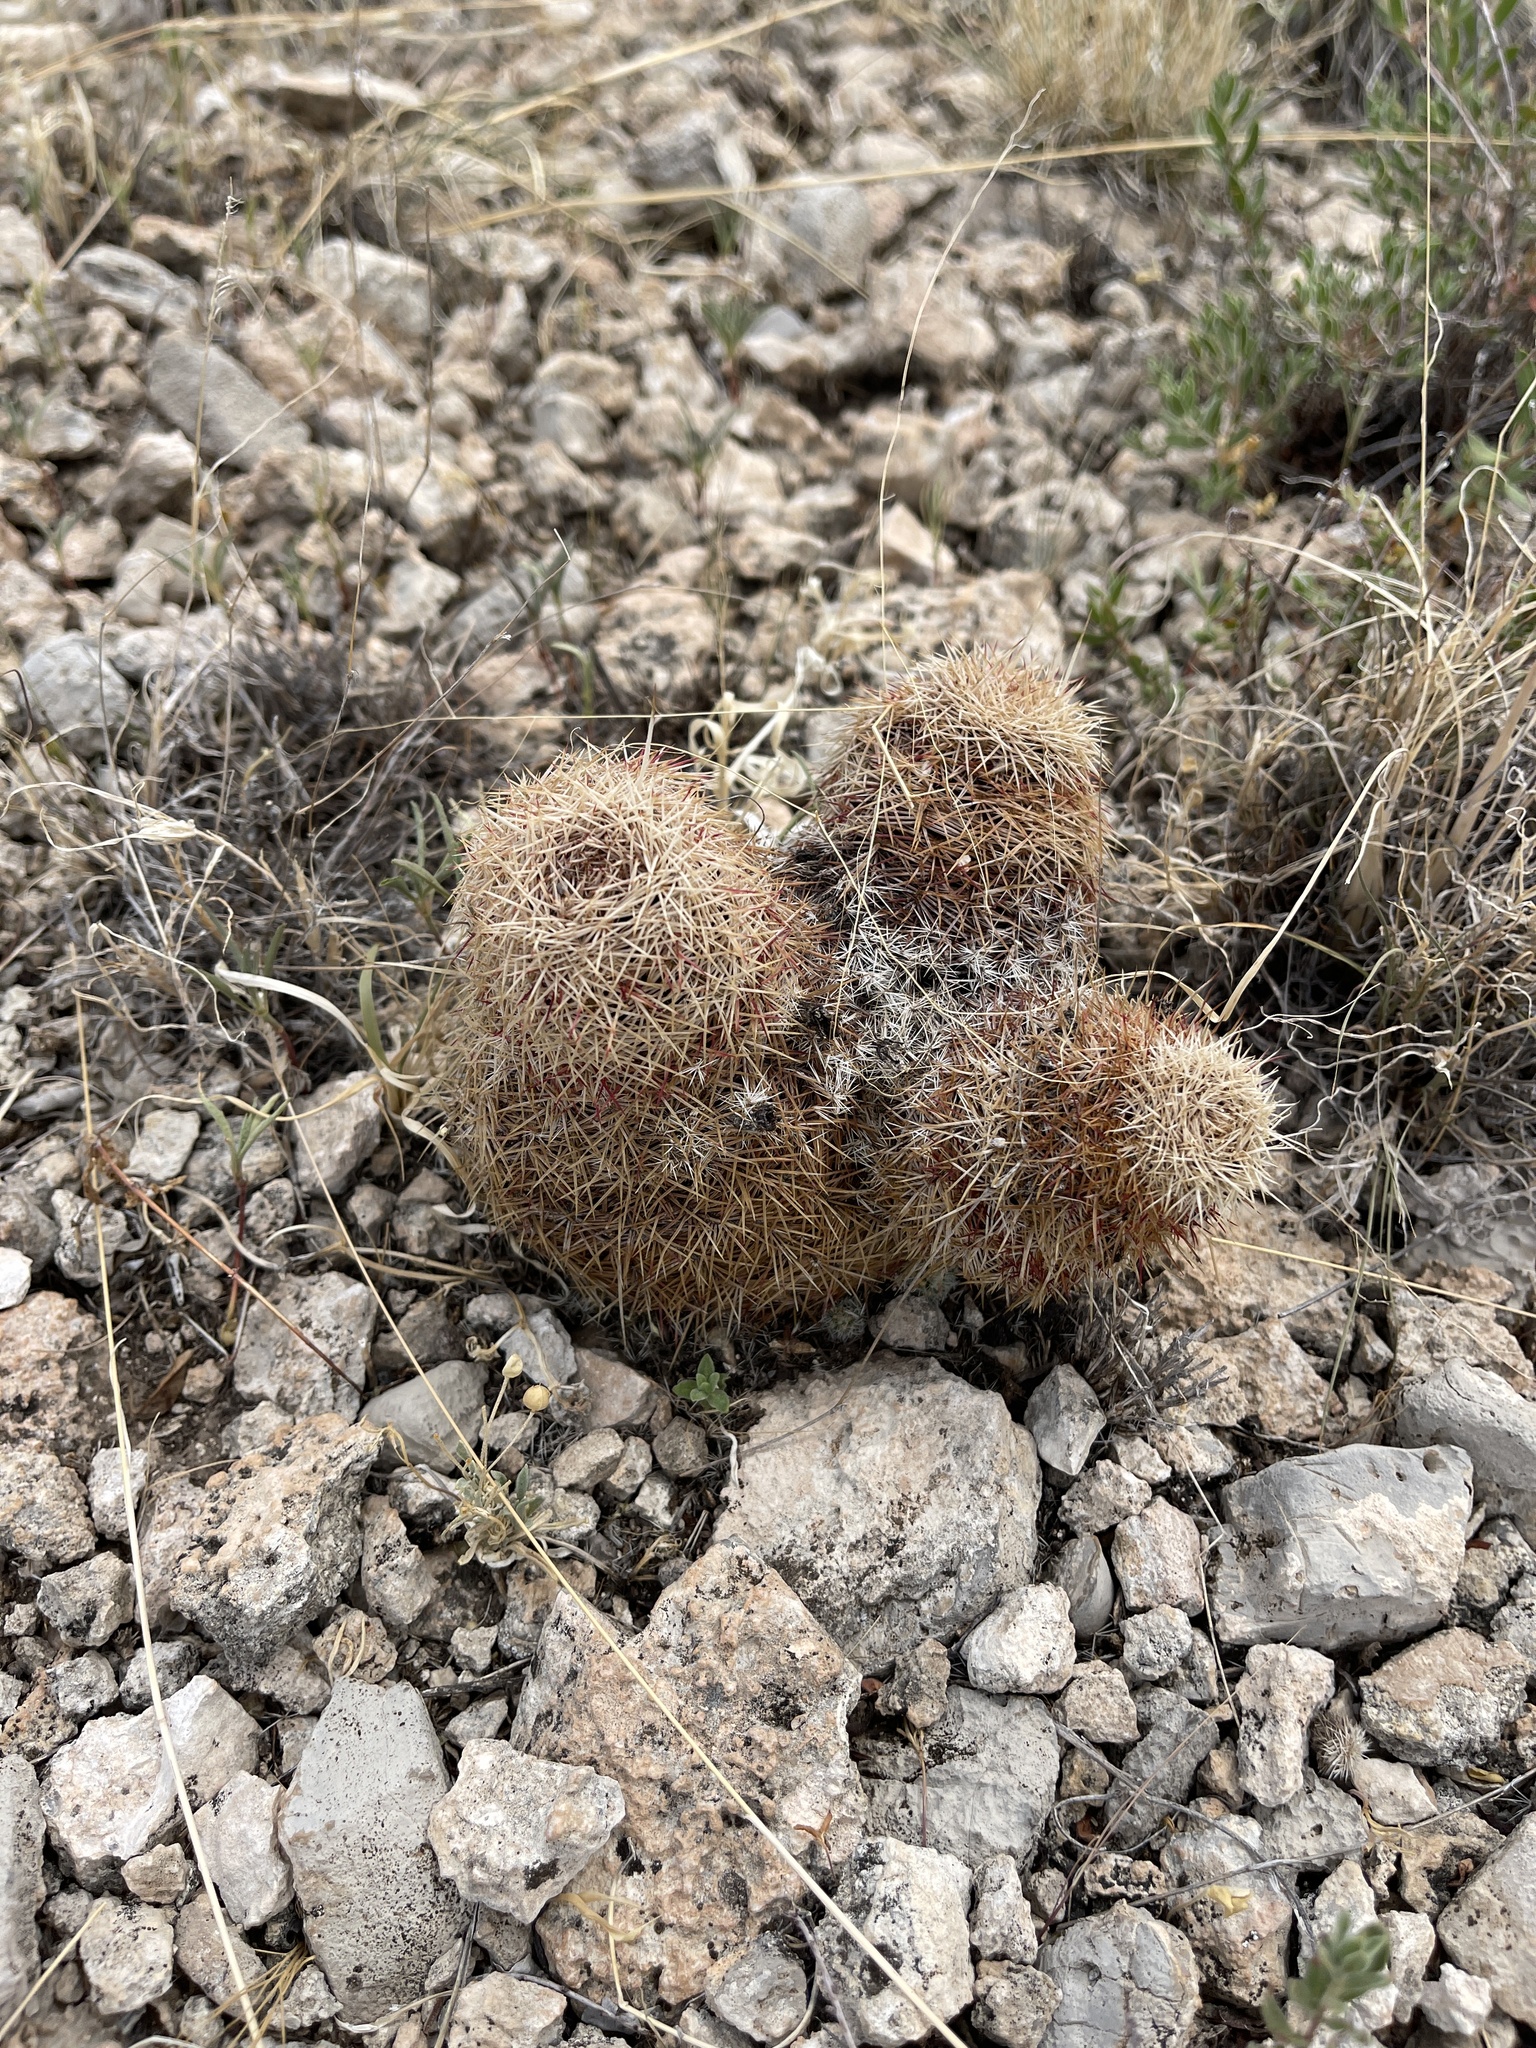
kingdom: Plantae
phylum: Tracheophyta
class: Magnoliopsida
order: Caryophyllales
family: Cactaceae
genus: Echinocereus
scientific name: Echinocereus dasyacanthus
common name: Spiny hedgehog cactus
